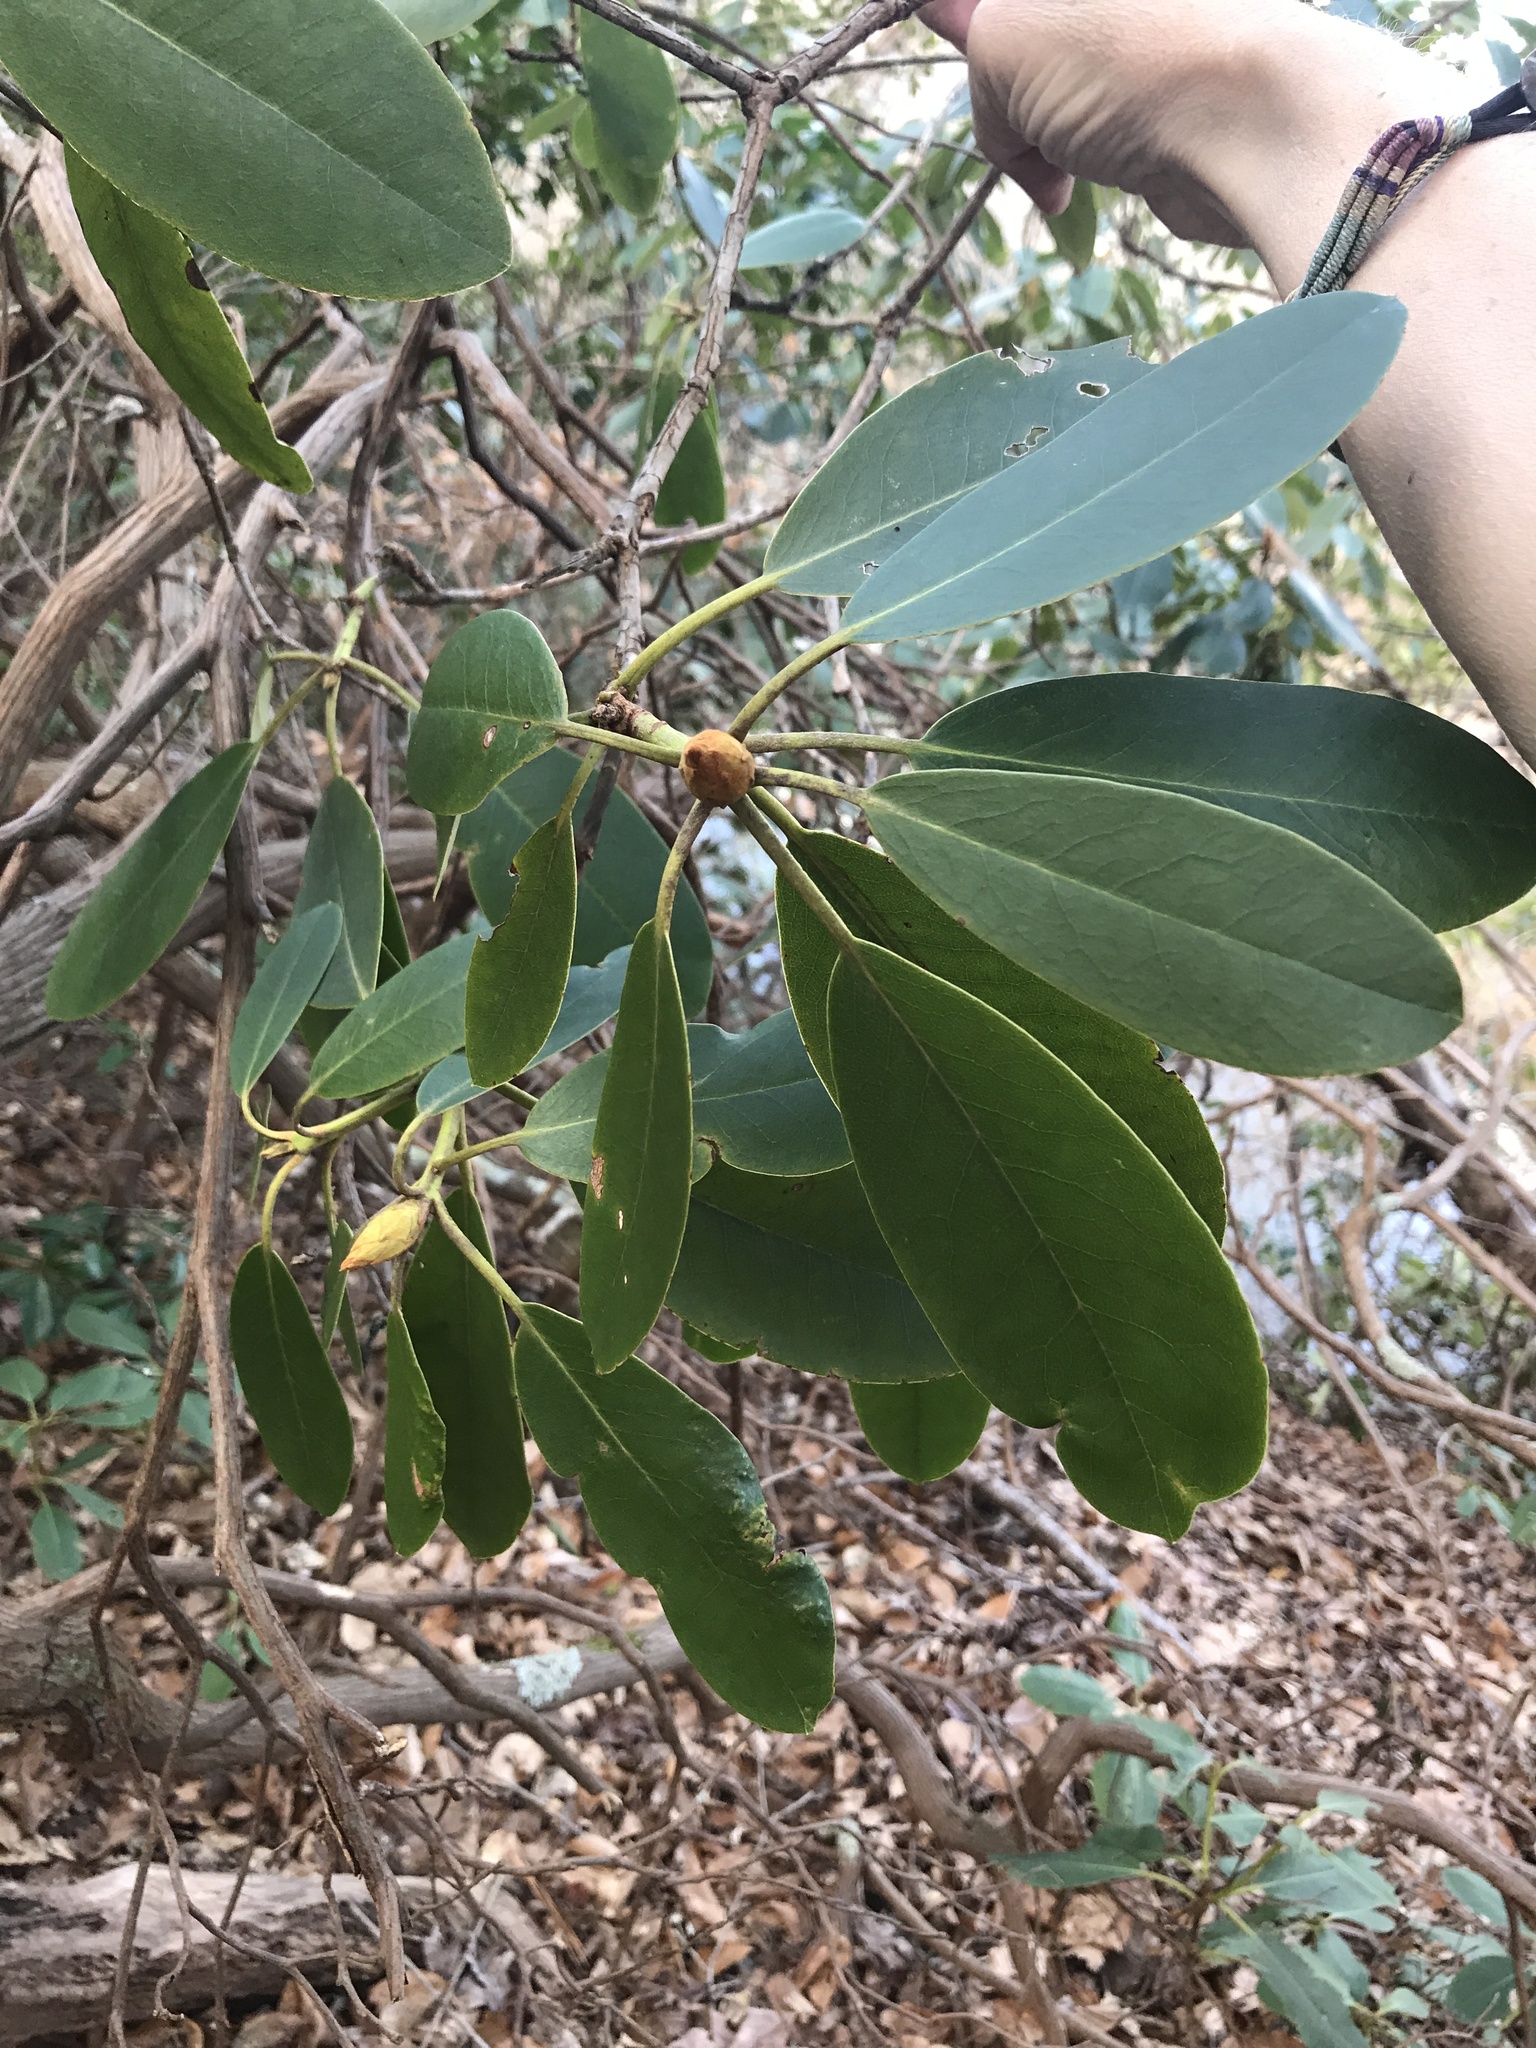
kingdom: Plantae
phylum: Tracheophyta
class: Magnoliopsida
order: Ericales
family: Ericaceae
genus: Rhododendron
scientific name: Rhododendron catawbiense
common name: Catawba rhododendron
